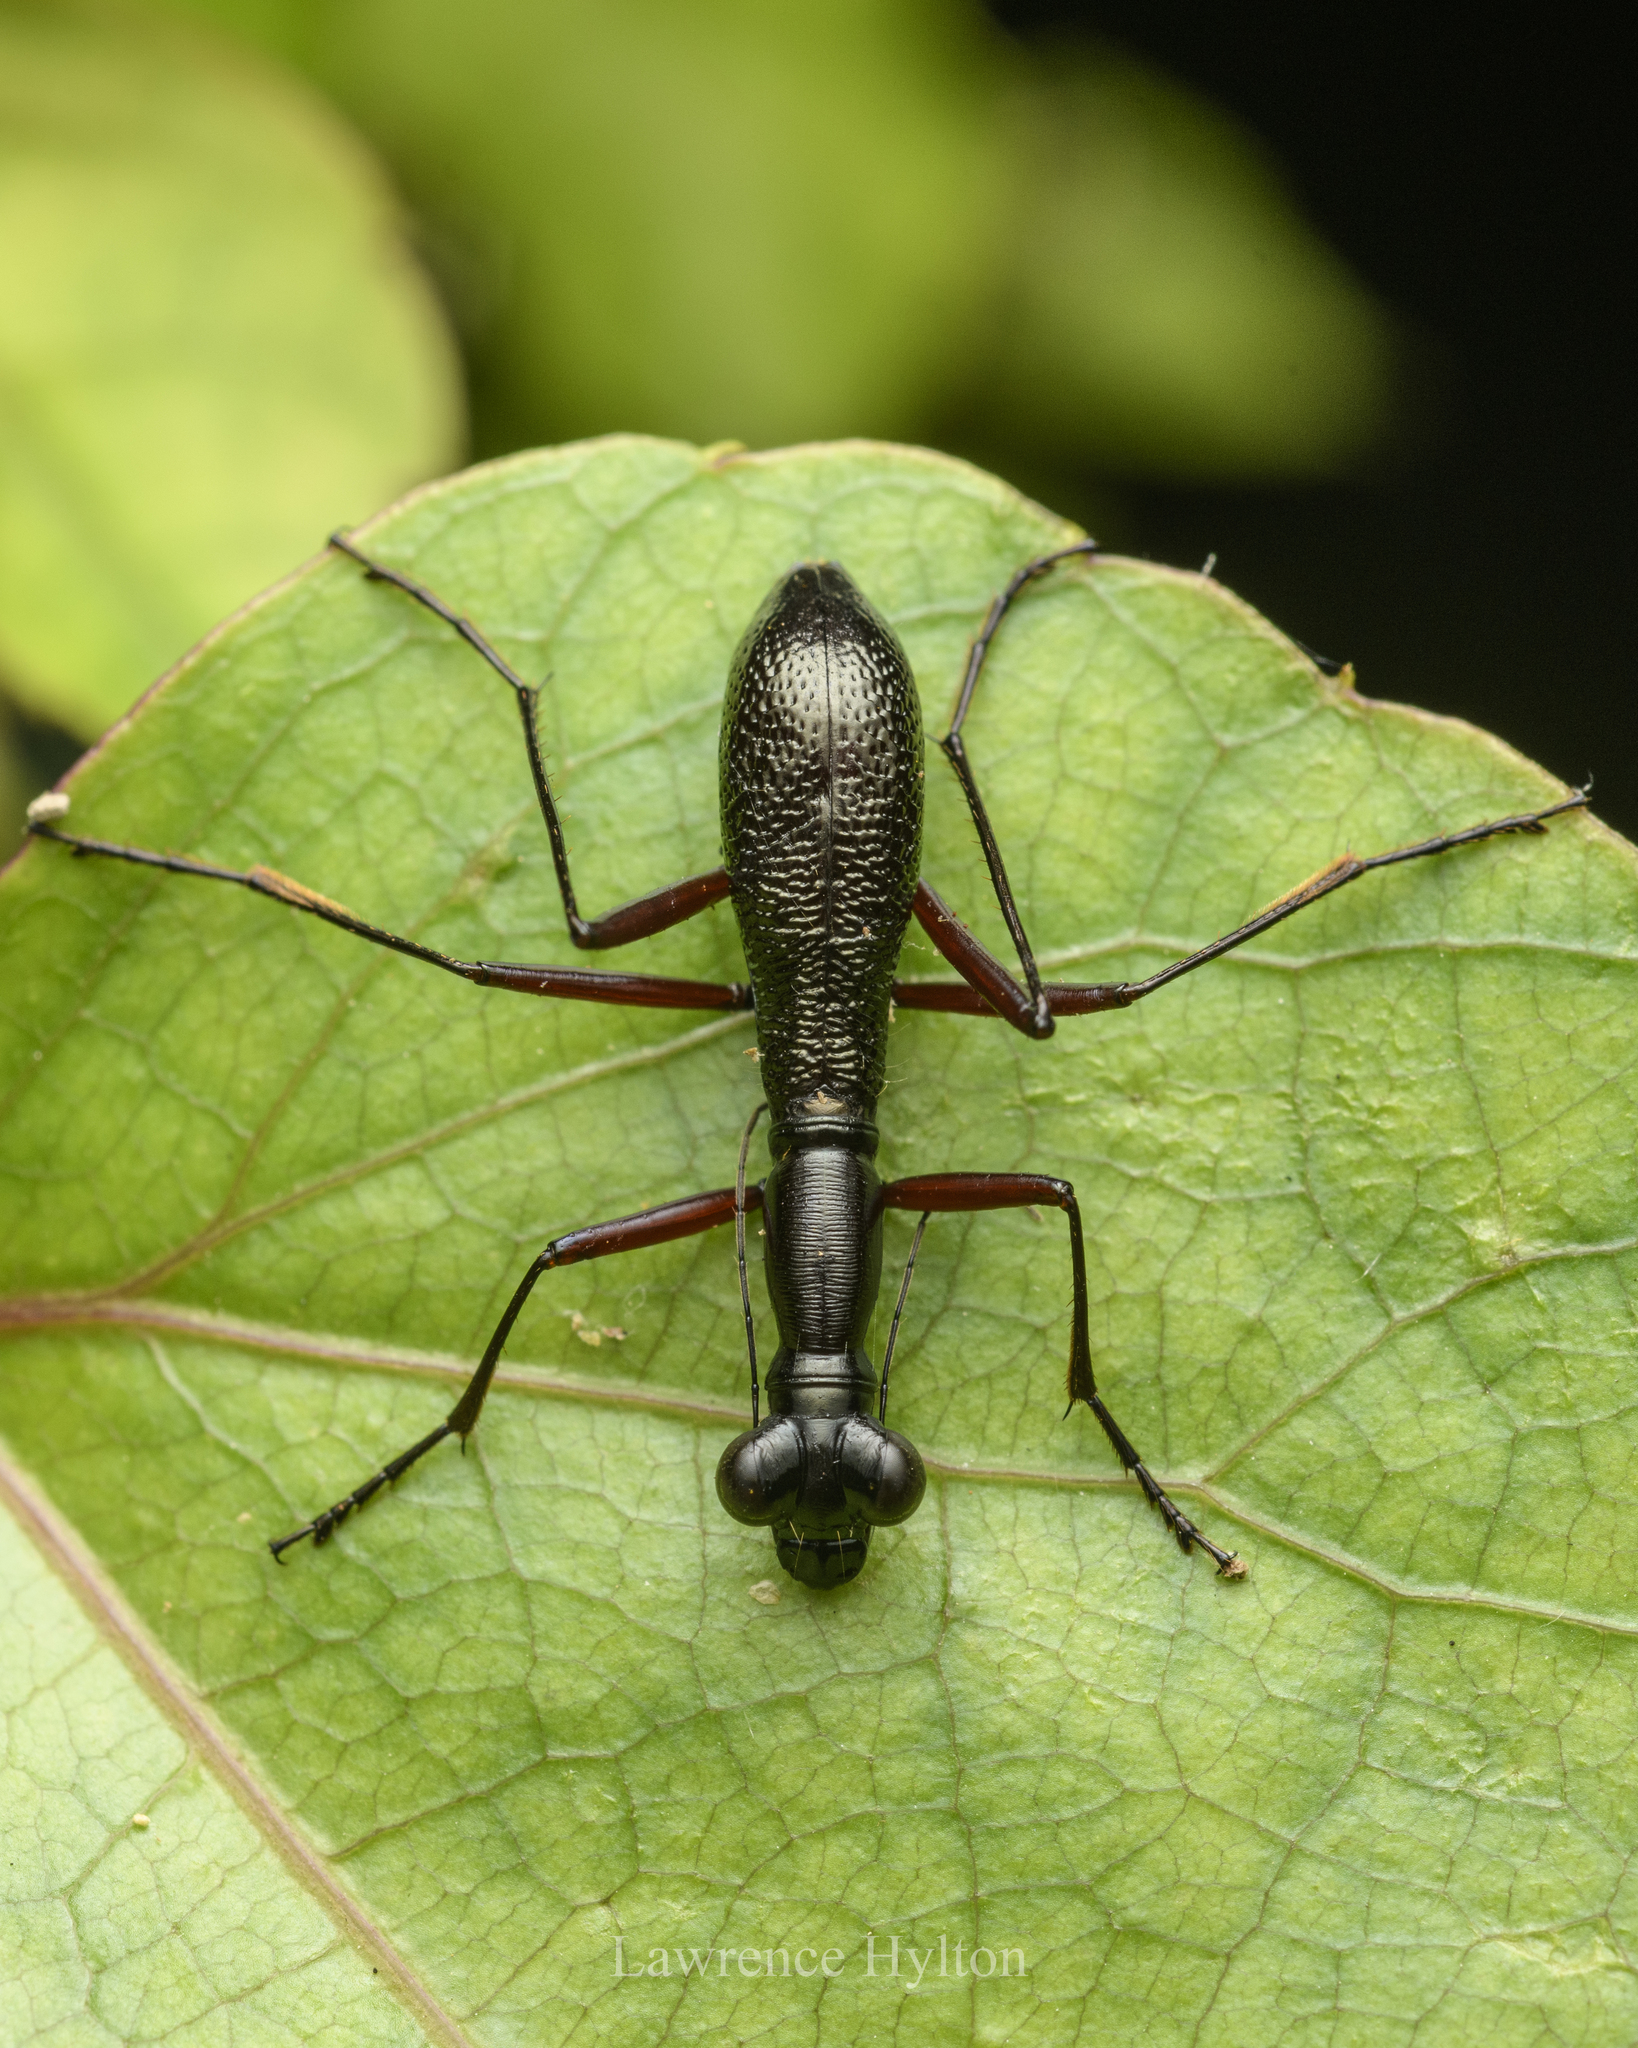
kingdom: Animalia
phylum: Arthropoda
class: Insecta
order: Coleoptera
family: Carabidae
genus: Tricondyla
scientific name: Tricondyla pulchripes
